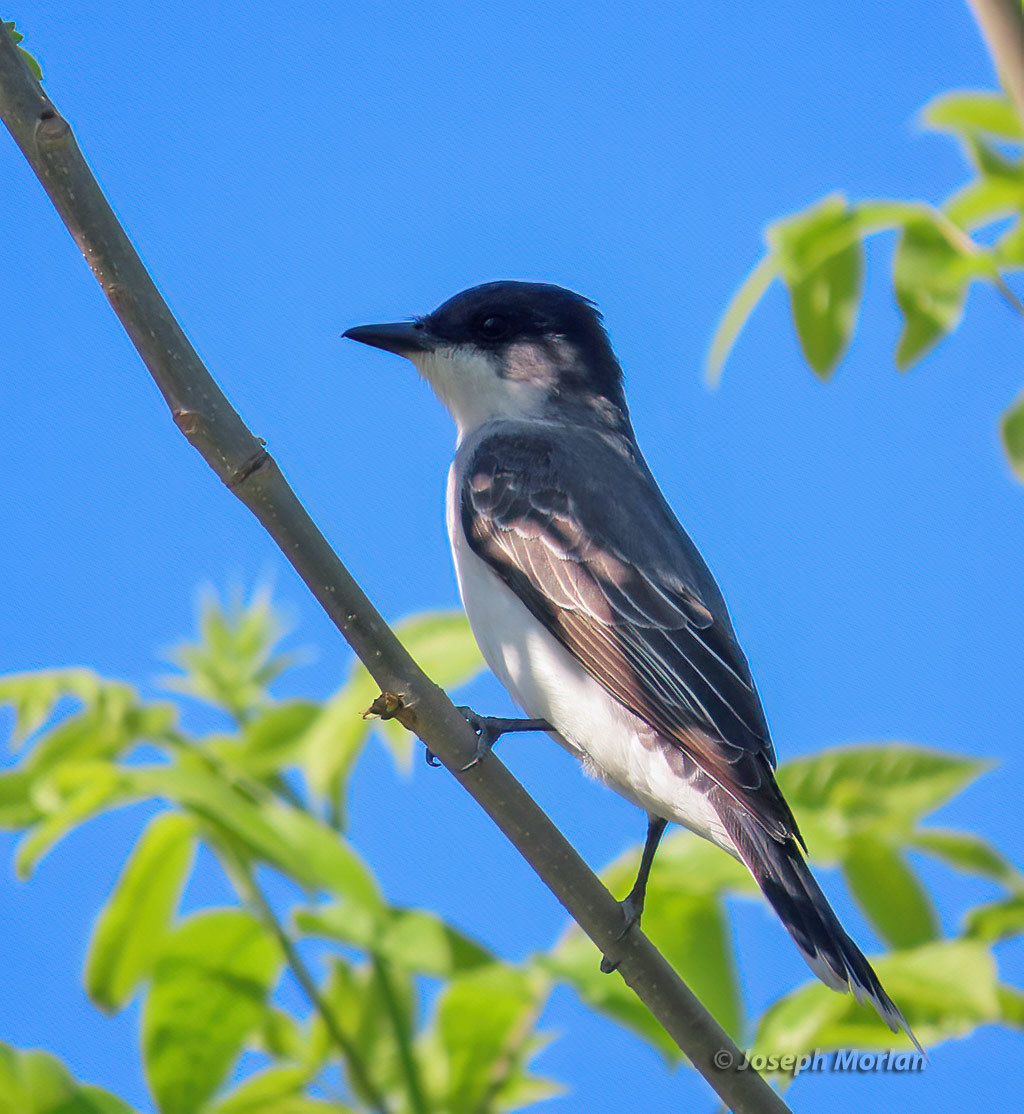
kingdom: Animalia
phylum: Chordata
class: Aves
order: Passeriformes
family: Tyrannidae
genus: Tyrannus
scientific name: Tyrannus tyrannus
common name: Eastern kingbird
